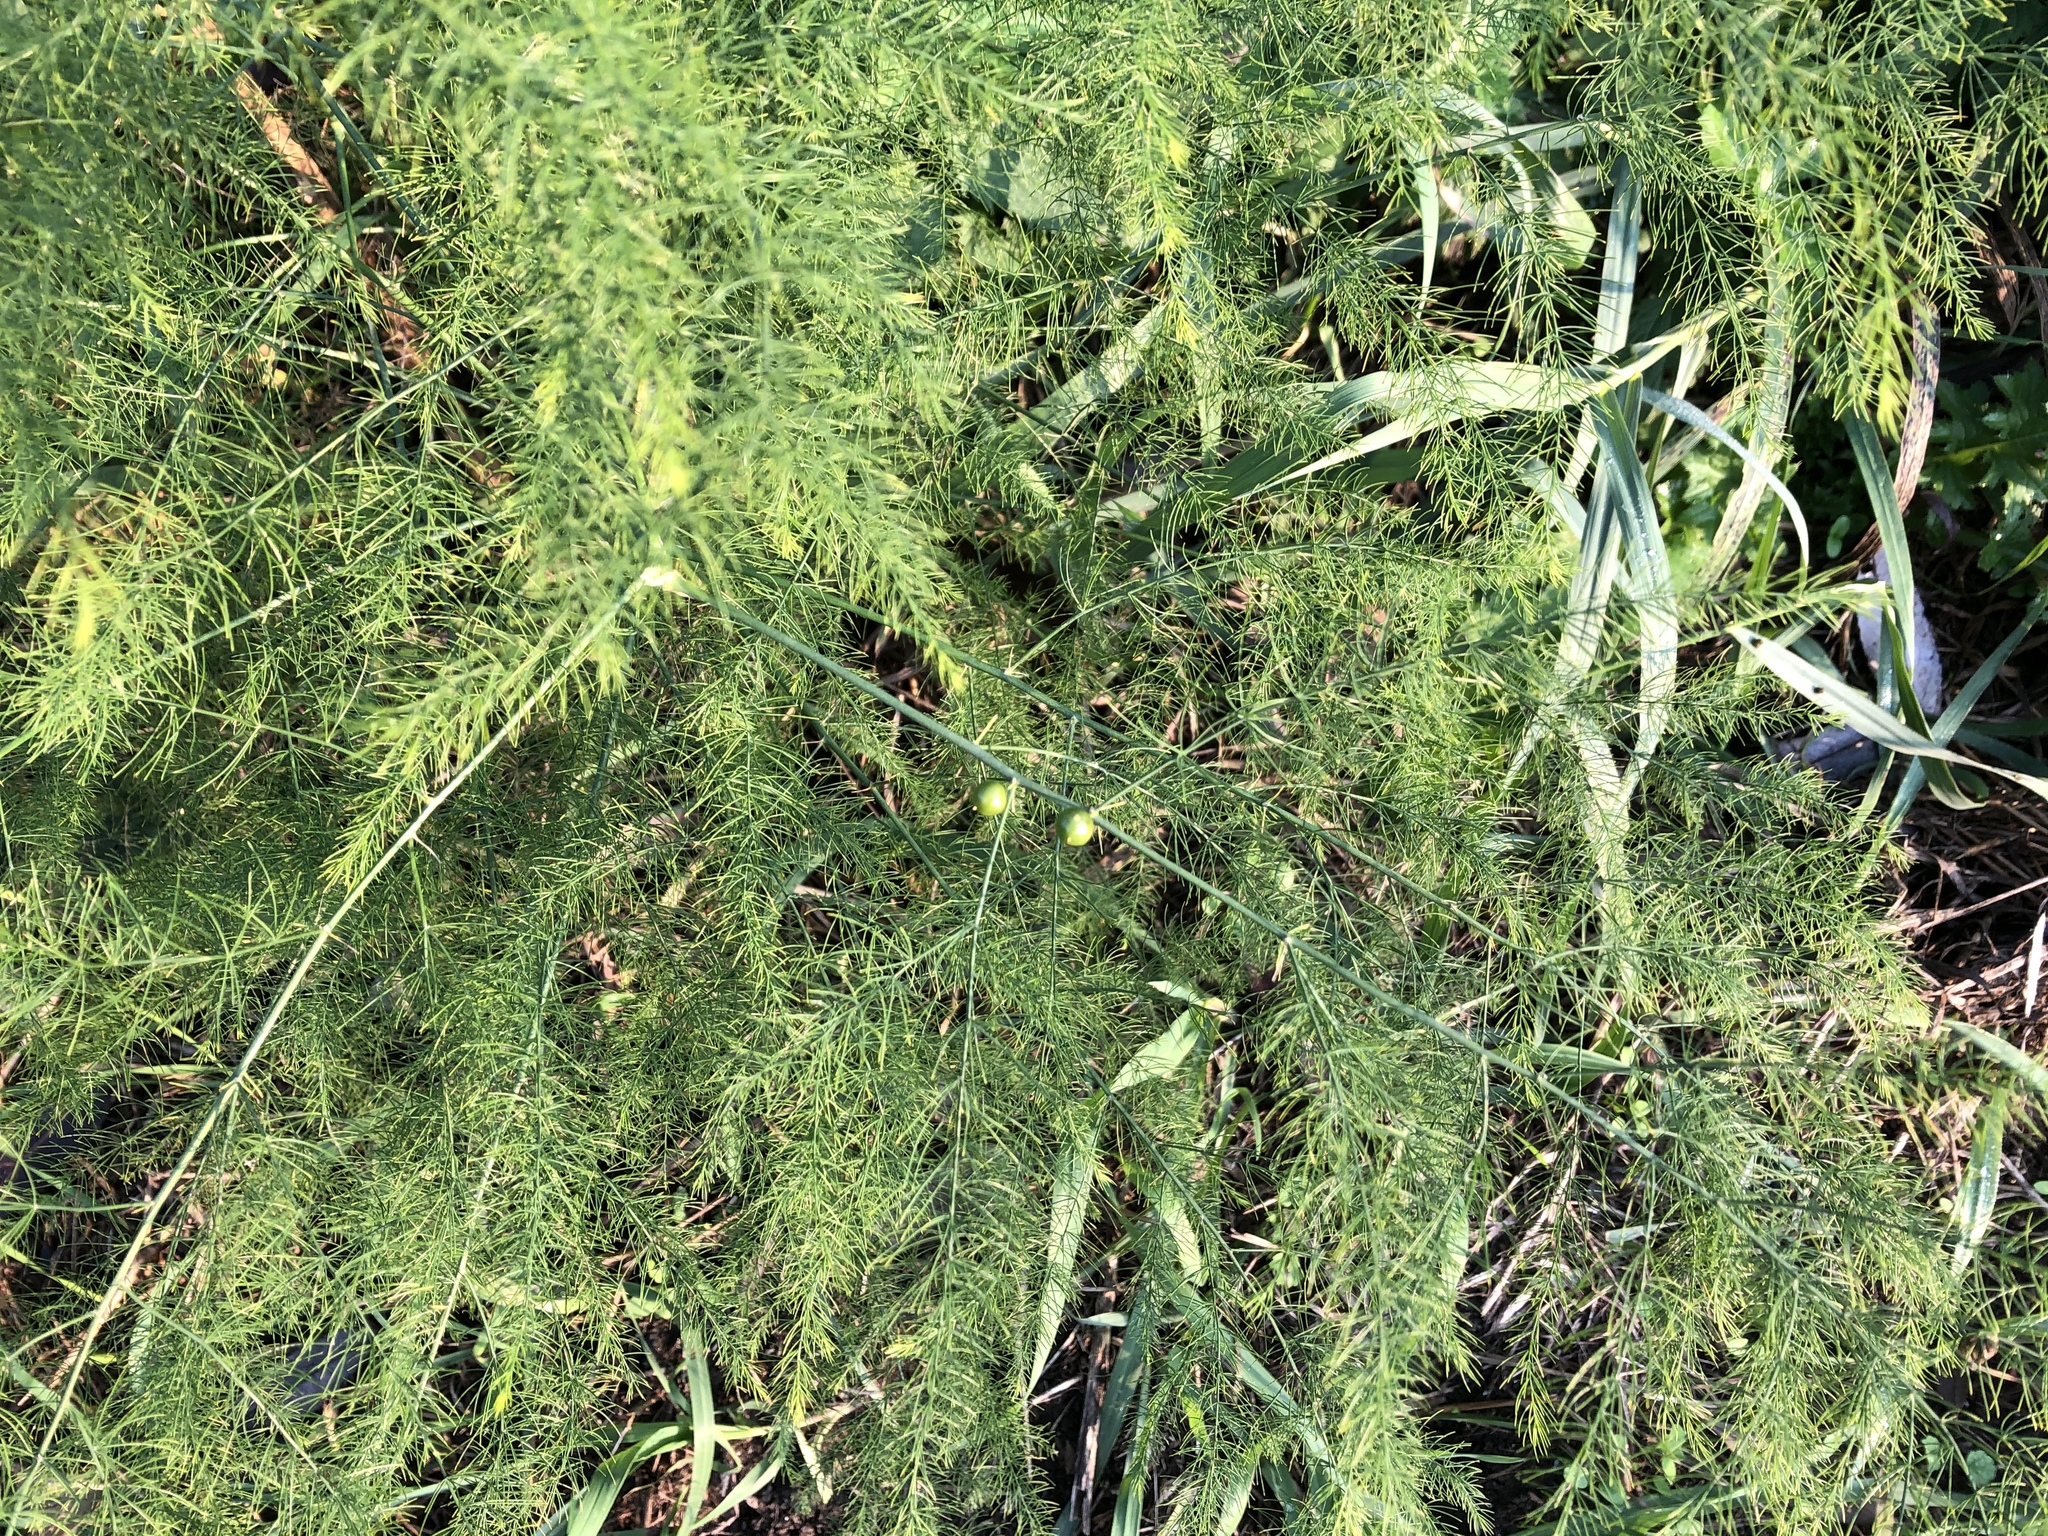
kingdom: Plantae
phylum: Tracheophyta
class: Liliopsida
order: Asparagales
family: Asparagaceae
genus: Asparagus
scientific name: Asparagus officinalis
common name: Garden asparagus
